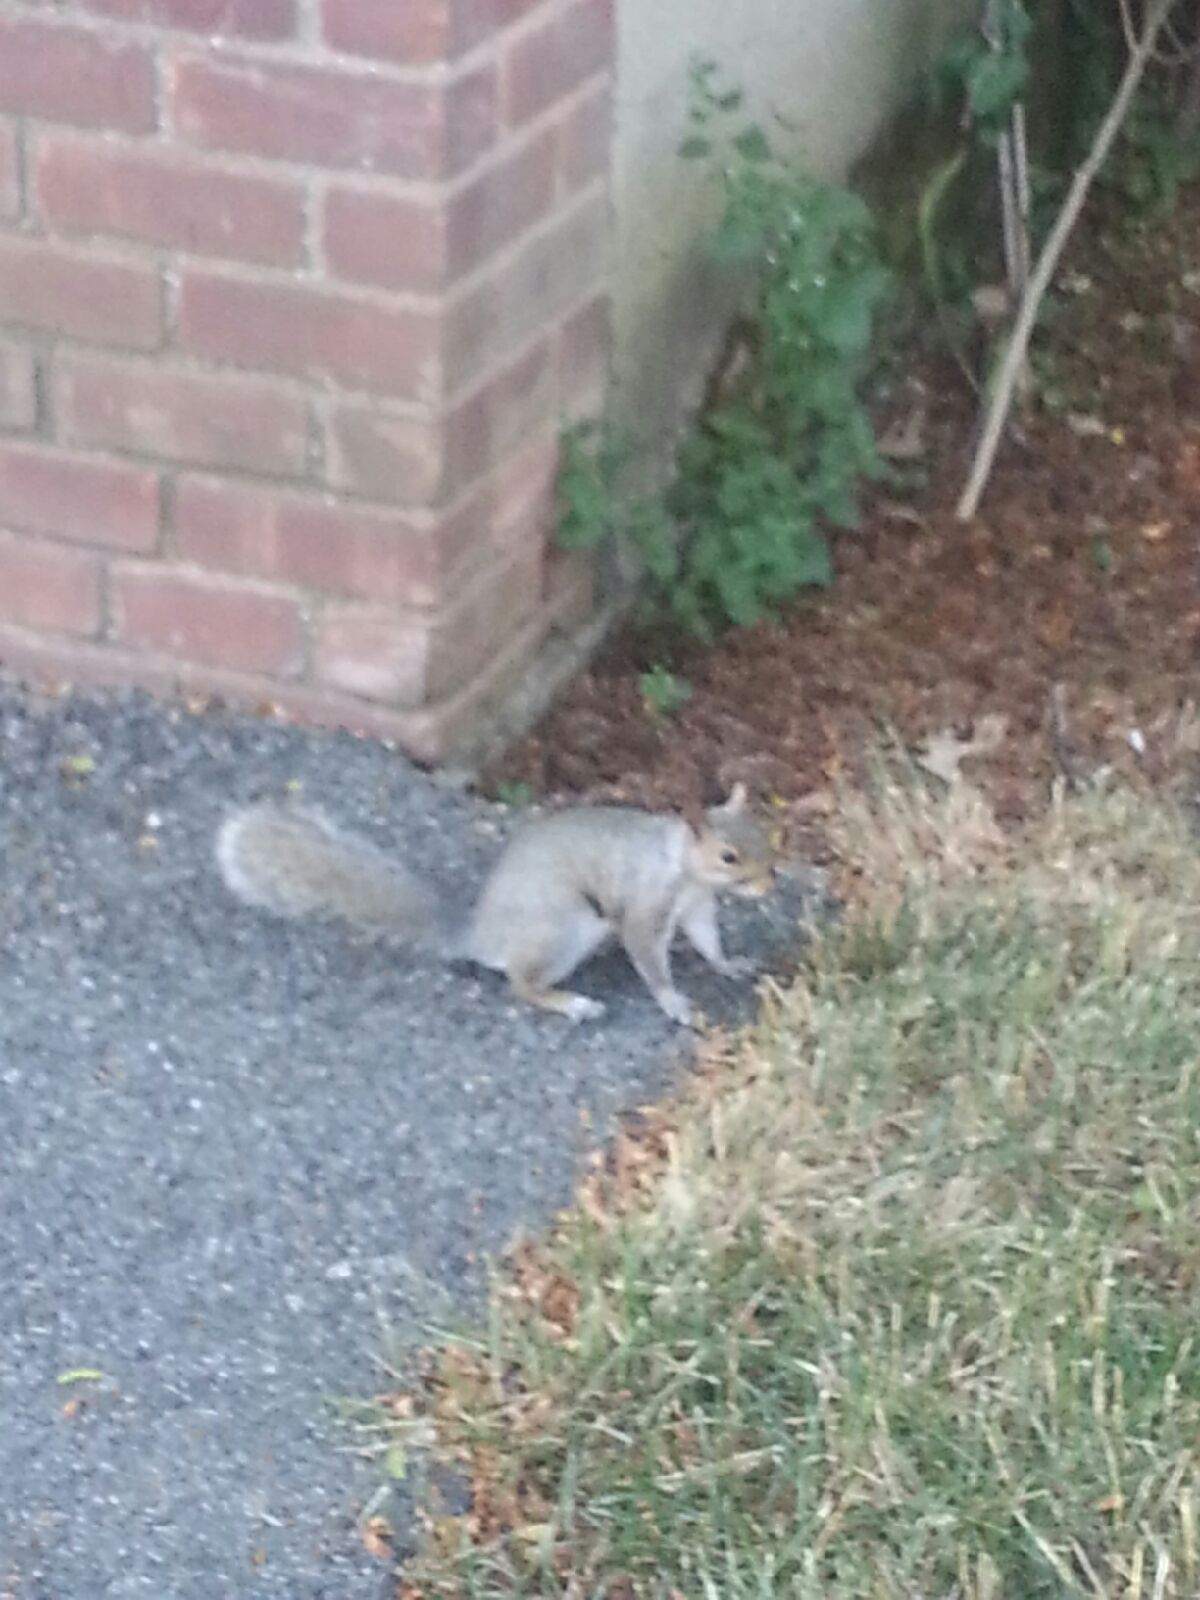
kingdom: Animalia
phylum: Chordata
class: Mammalia
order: Rodentia
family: Sciuridae
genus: Sciurus
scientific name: Sciurus carolinensis
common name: Eastern gray squirrel
